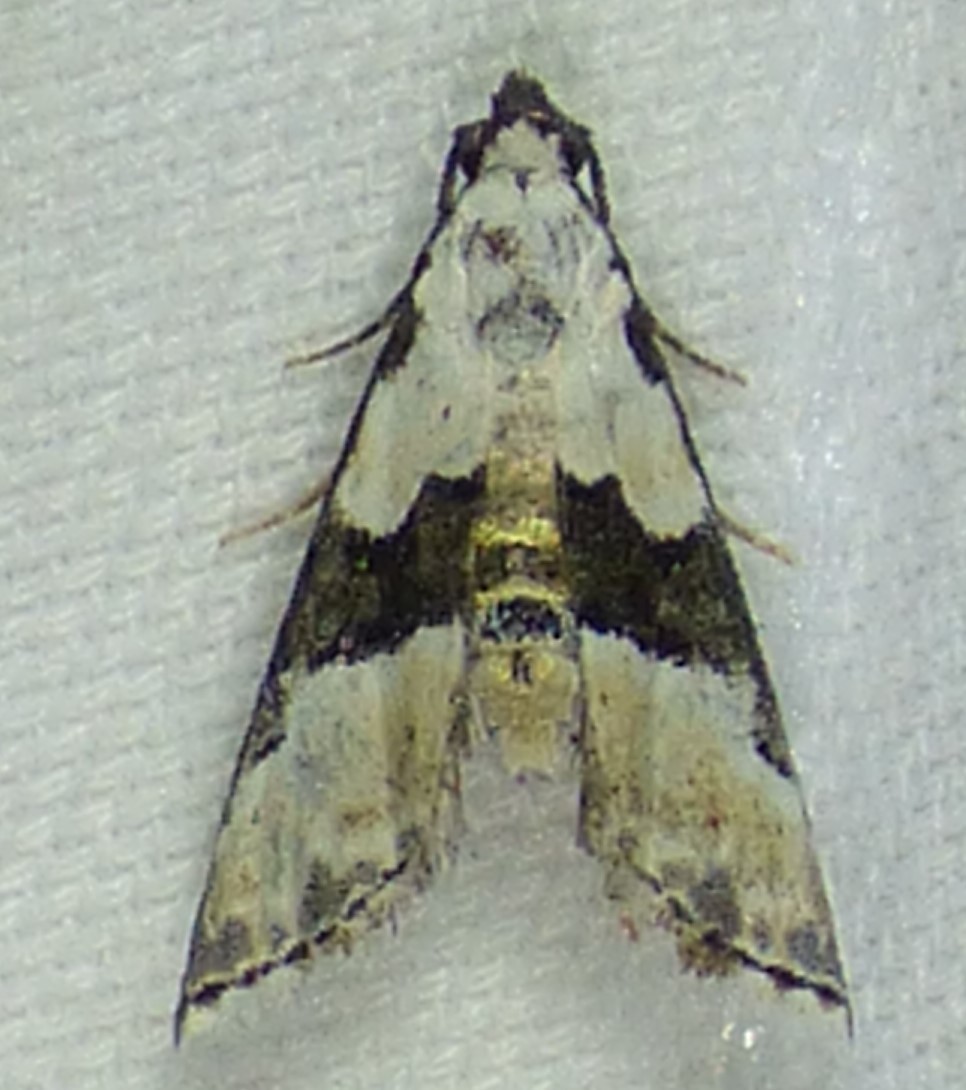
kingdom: Animalia
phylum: Arthropoda
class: Insecta
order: Lepidoptera
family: Noctuidae
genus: Nigetia
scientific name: Nigetia formosalis
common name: Thin-winged owlet
